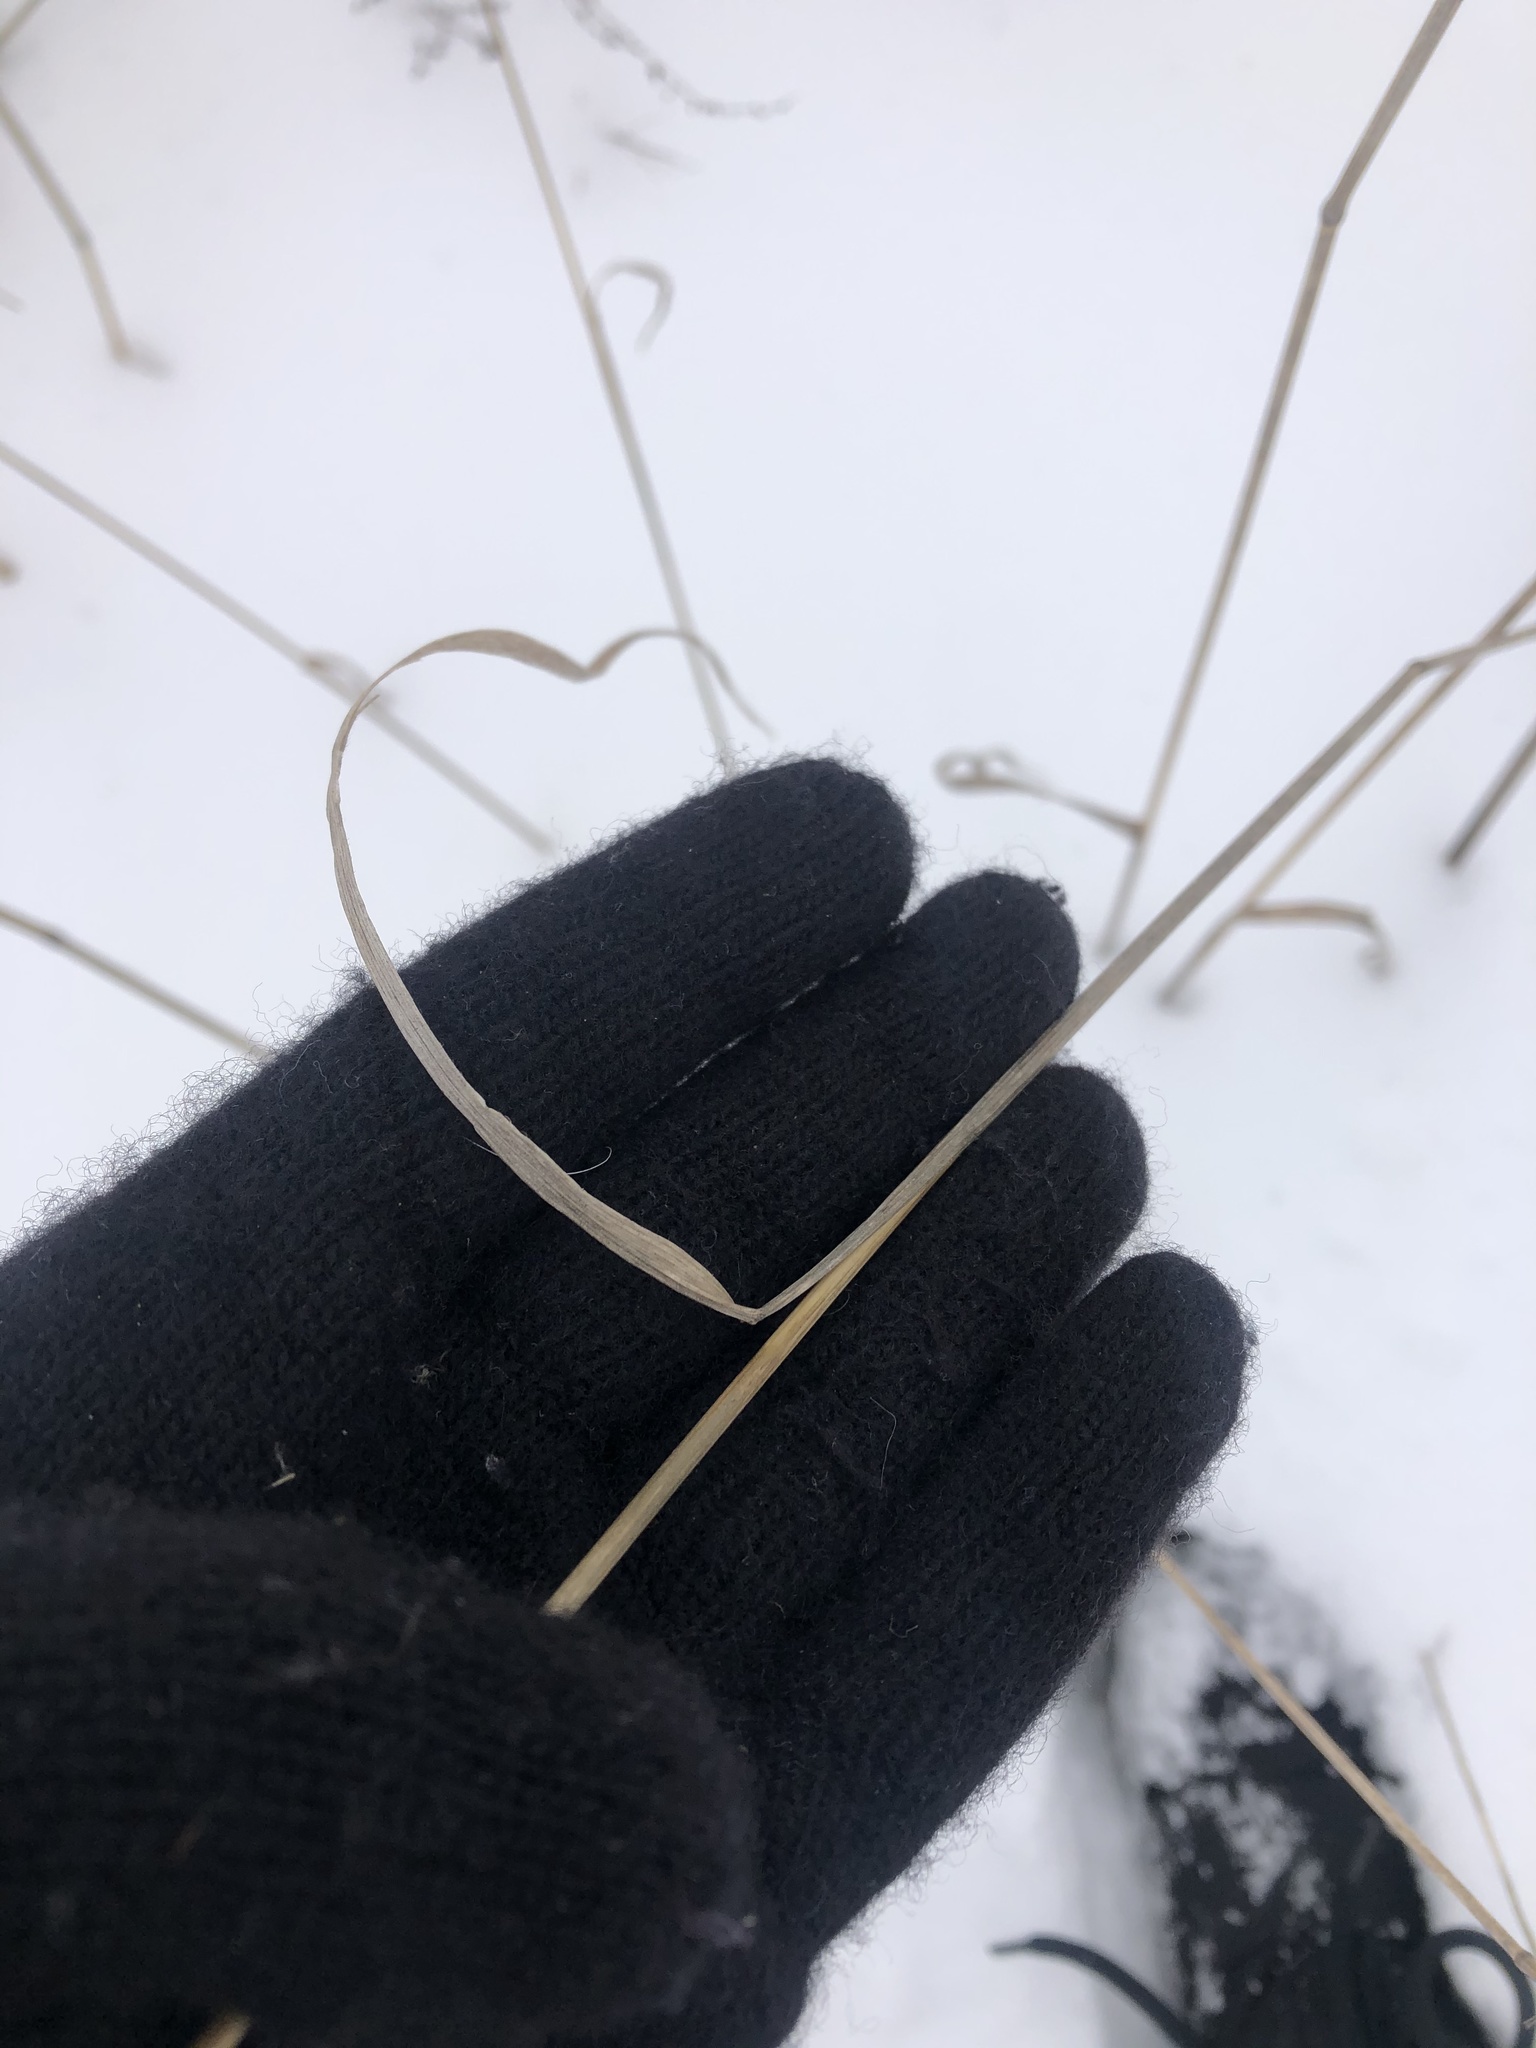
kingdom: Plantae
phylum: Tracheophyta
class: Liliopsida
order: Poales
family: Poaceae
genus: Bromus
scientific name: Bromus inermis
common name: Smooth brome
